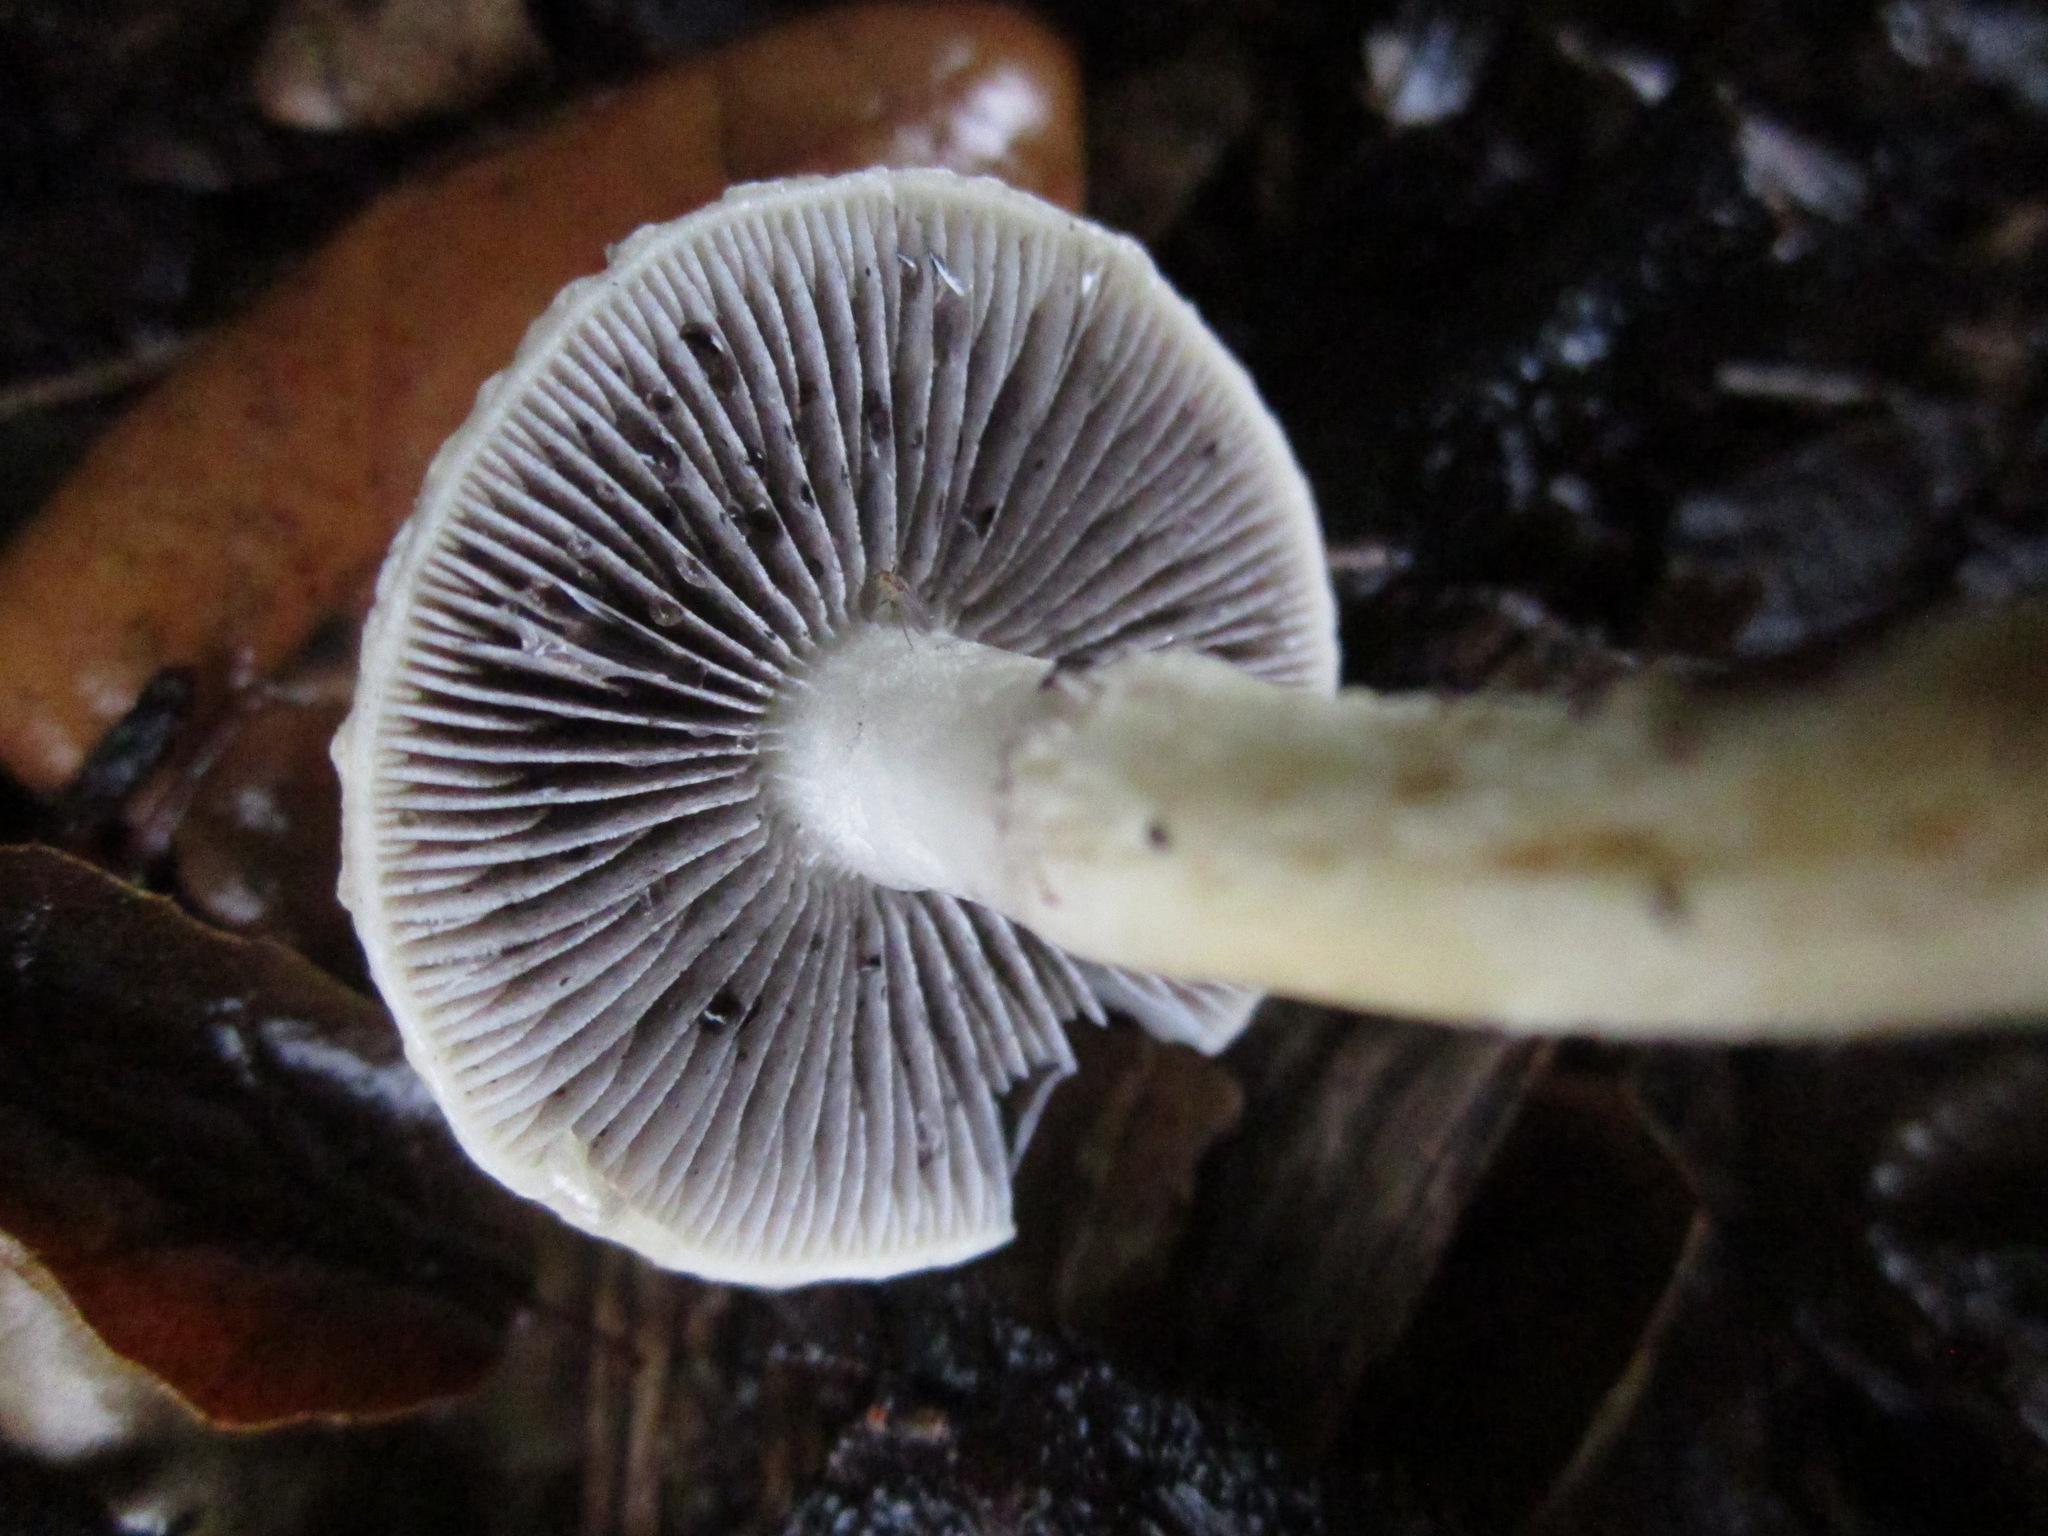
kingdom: Fungi
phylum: Basidiomycota
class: Agaricomycetes
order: Agaricales
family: Strophariaceae
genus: Leratiomyces
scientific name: Leratiomyces percevalii
